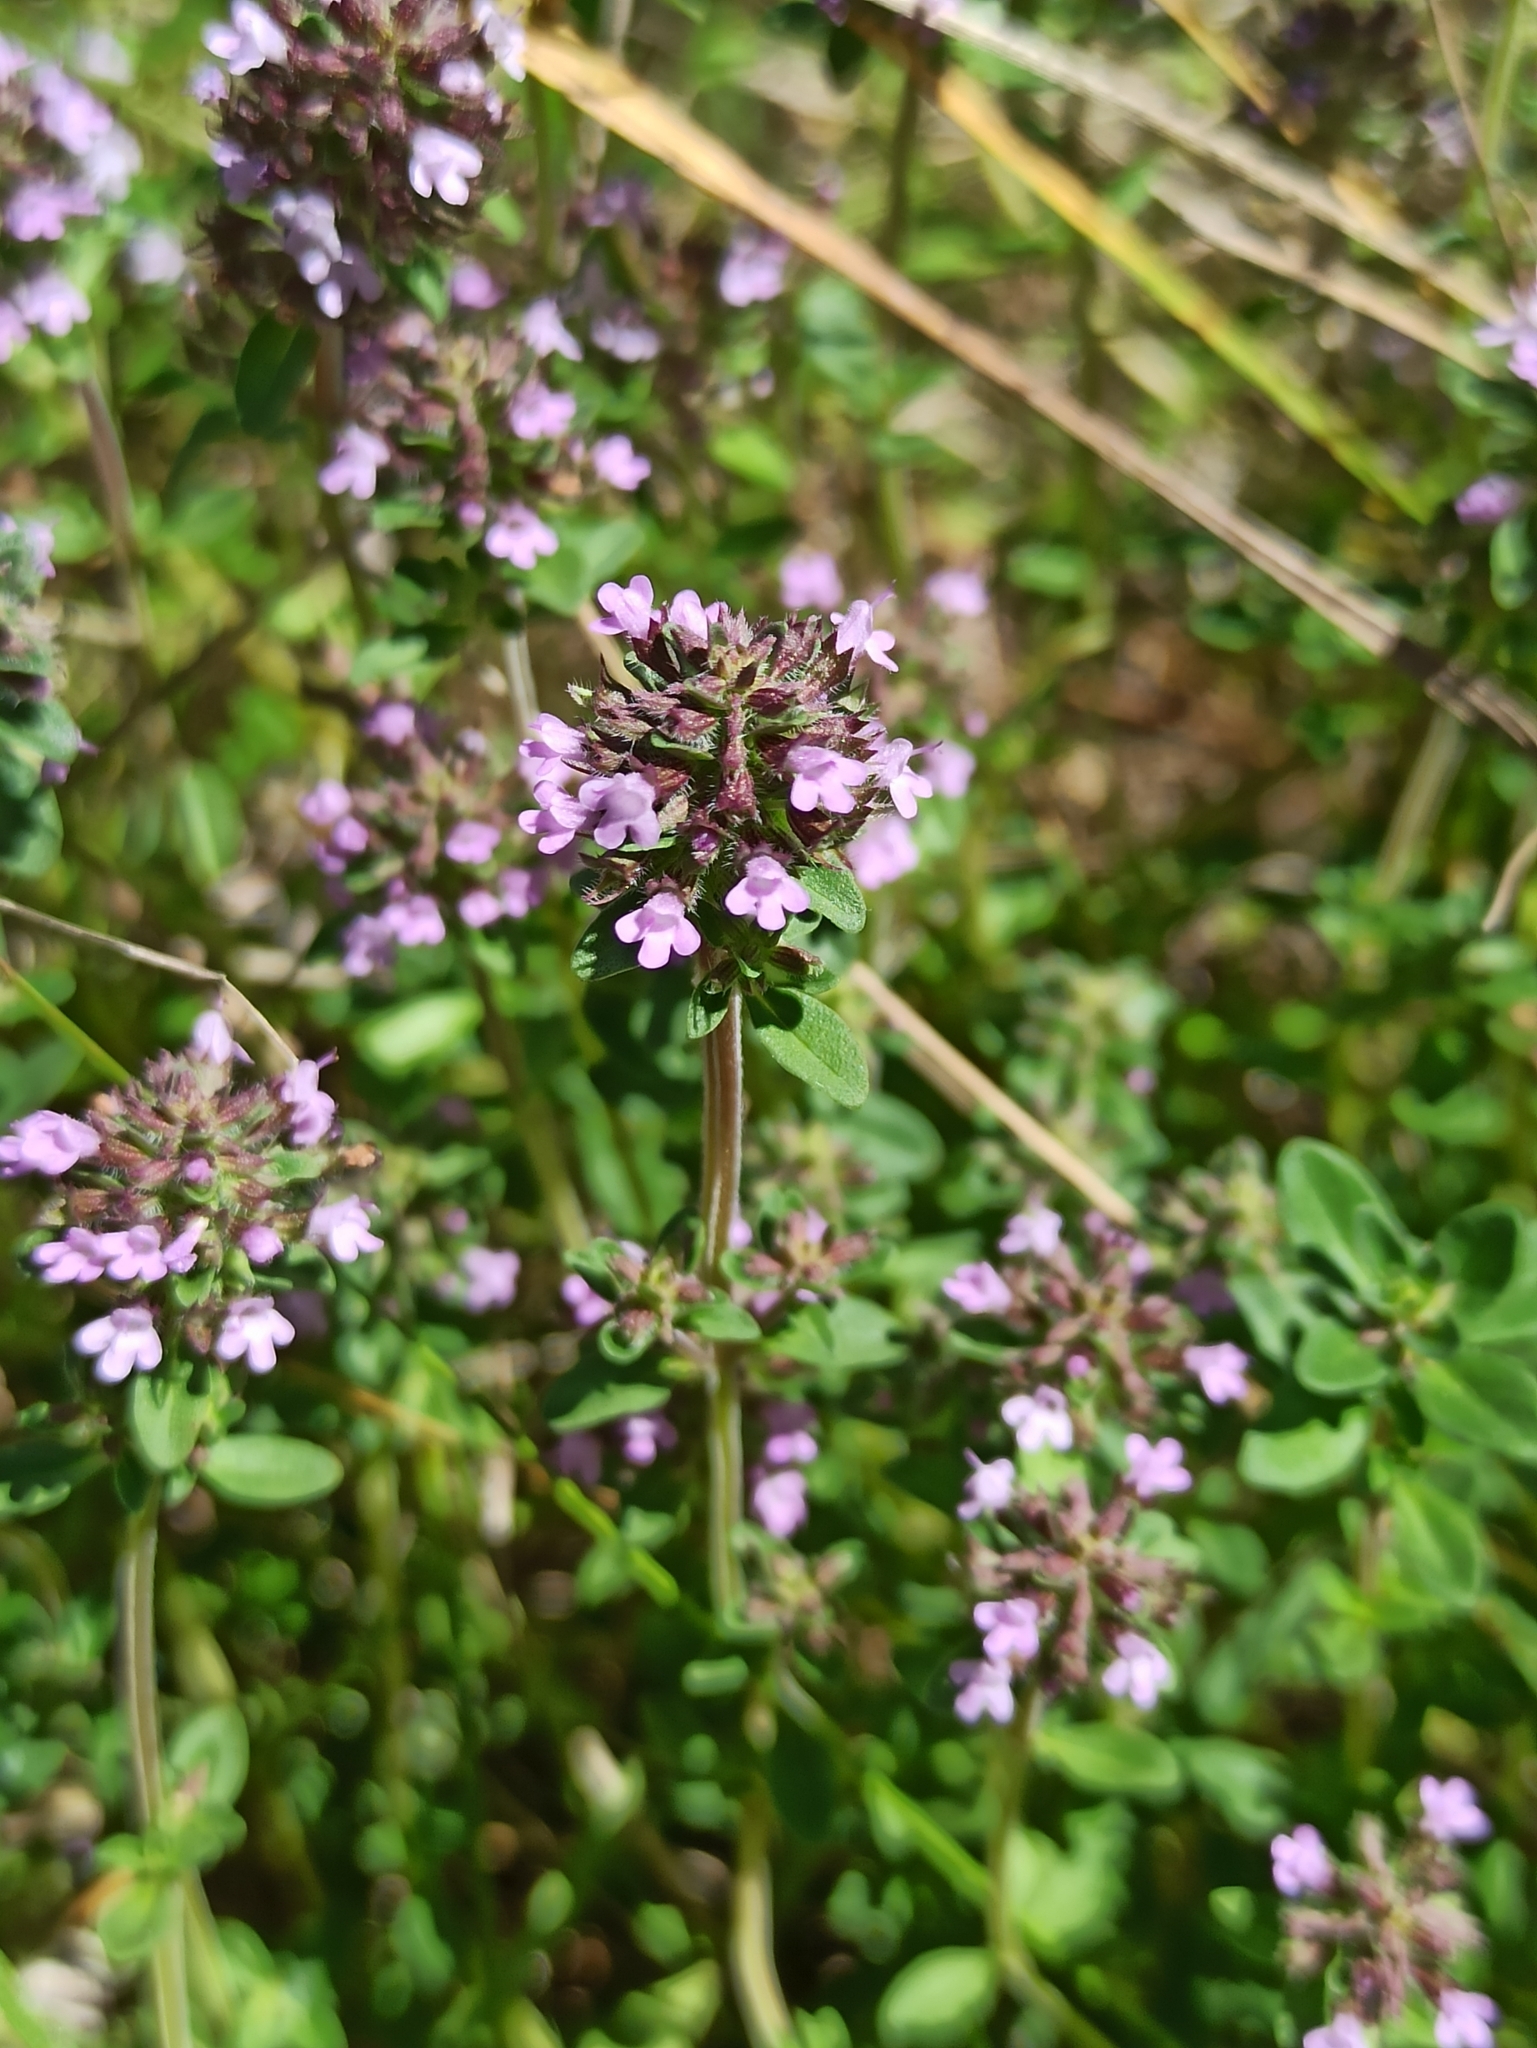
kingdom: Plantae
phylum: Tracheophyta
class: Magnoliopsida
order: Lamiales
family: Lamiaceae
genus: Thymus
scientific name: Thymus pulegioides
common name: Large thyme
